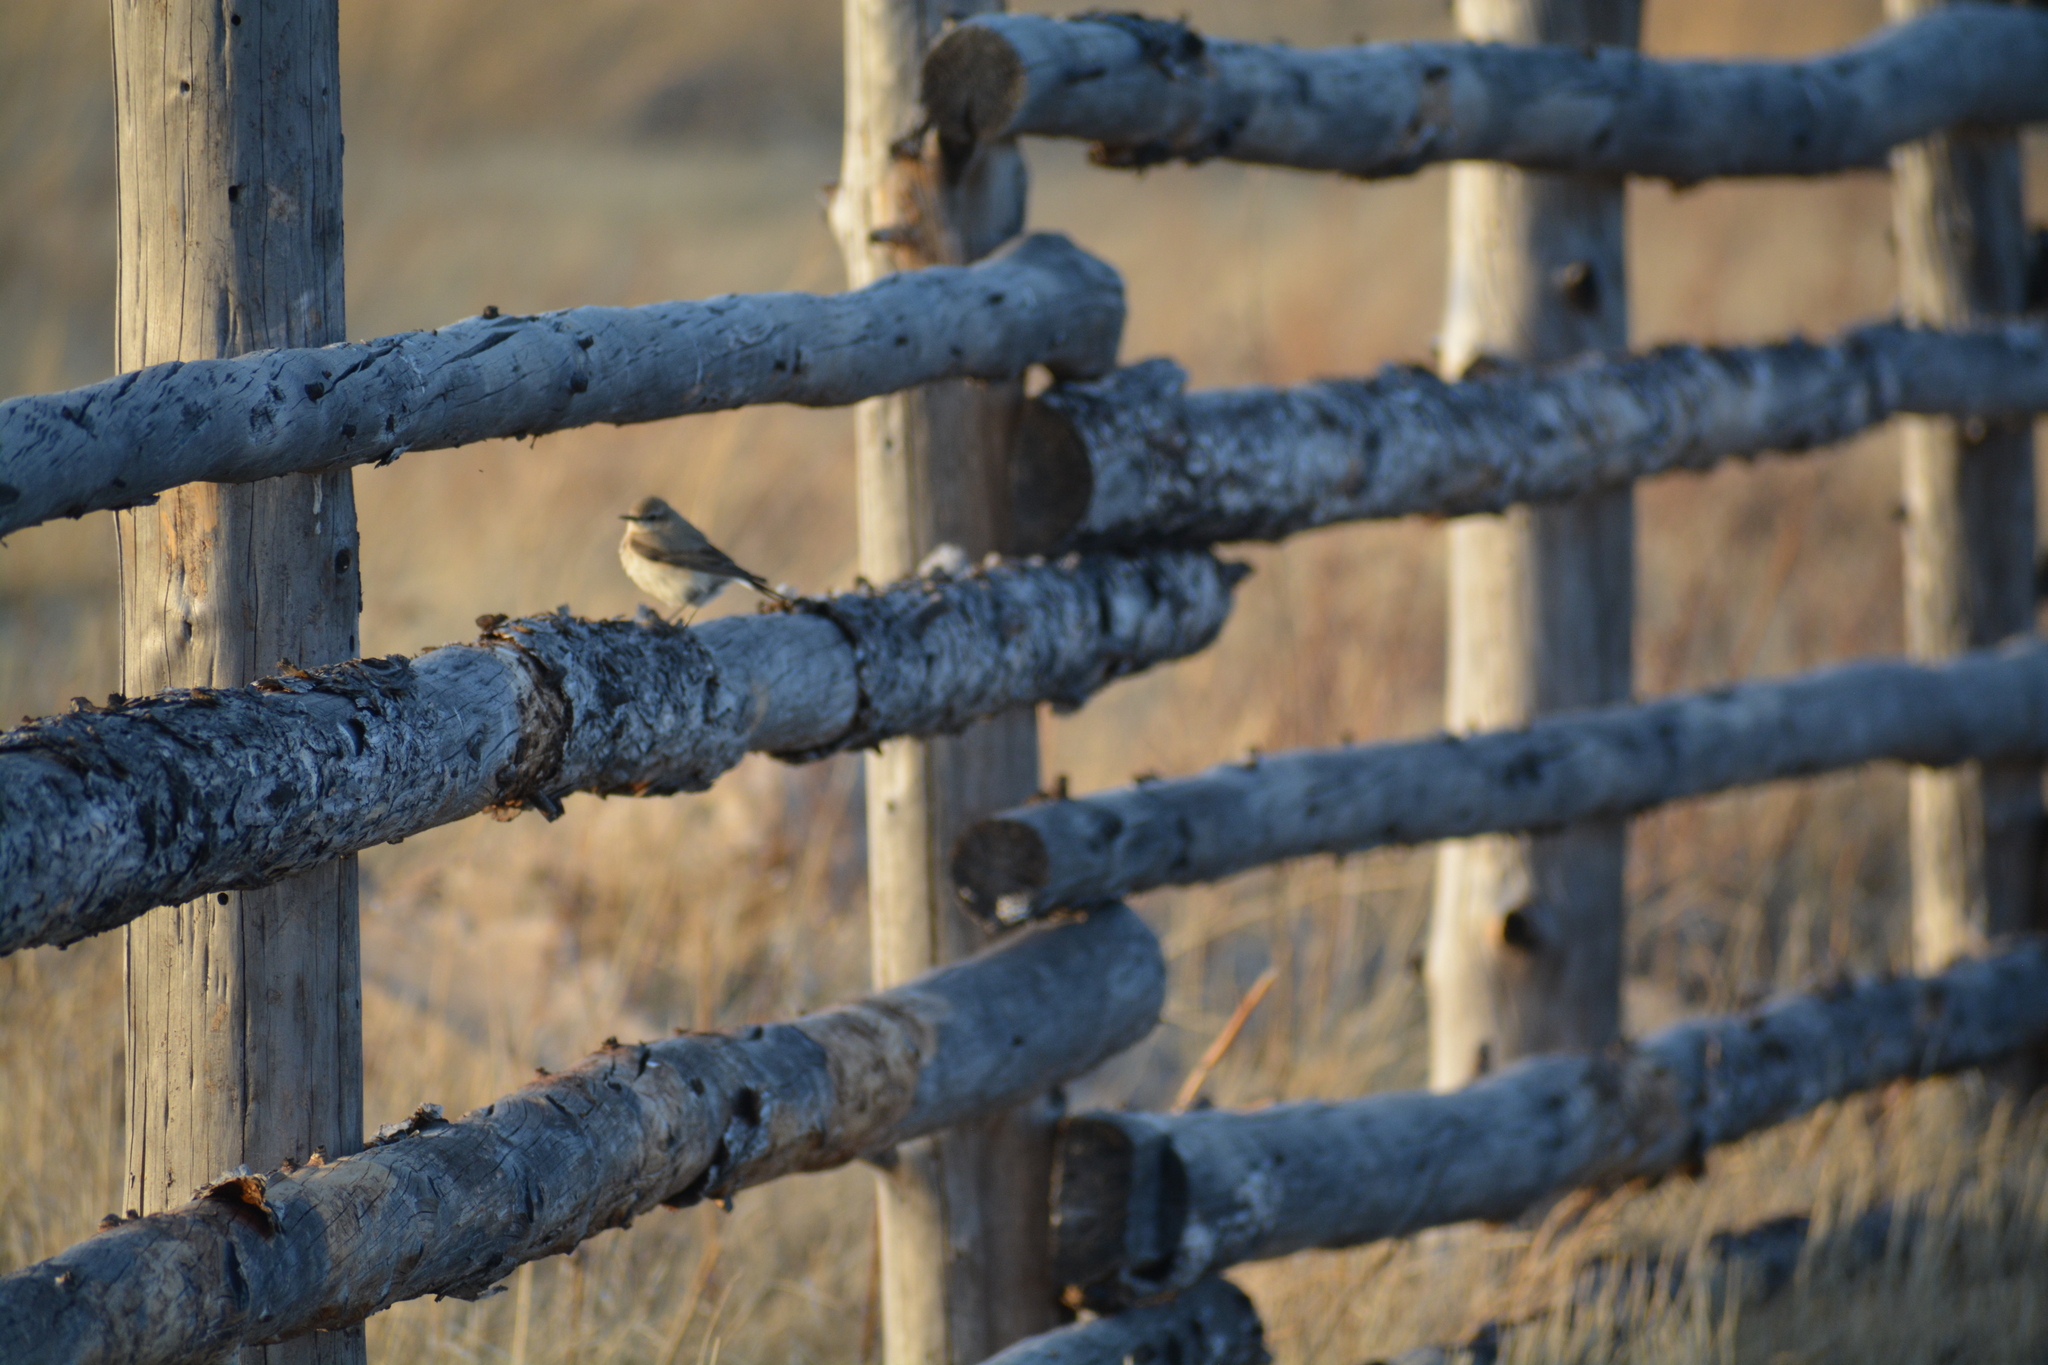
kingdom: Animalia
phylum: Chordata
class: Aves
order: Passeriformes
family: Muscicapidae
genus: Oenanthe
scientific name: Oenanthe oenanthe
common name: Northern wheatear
